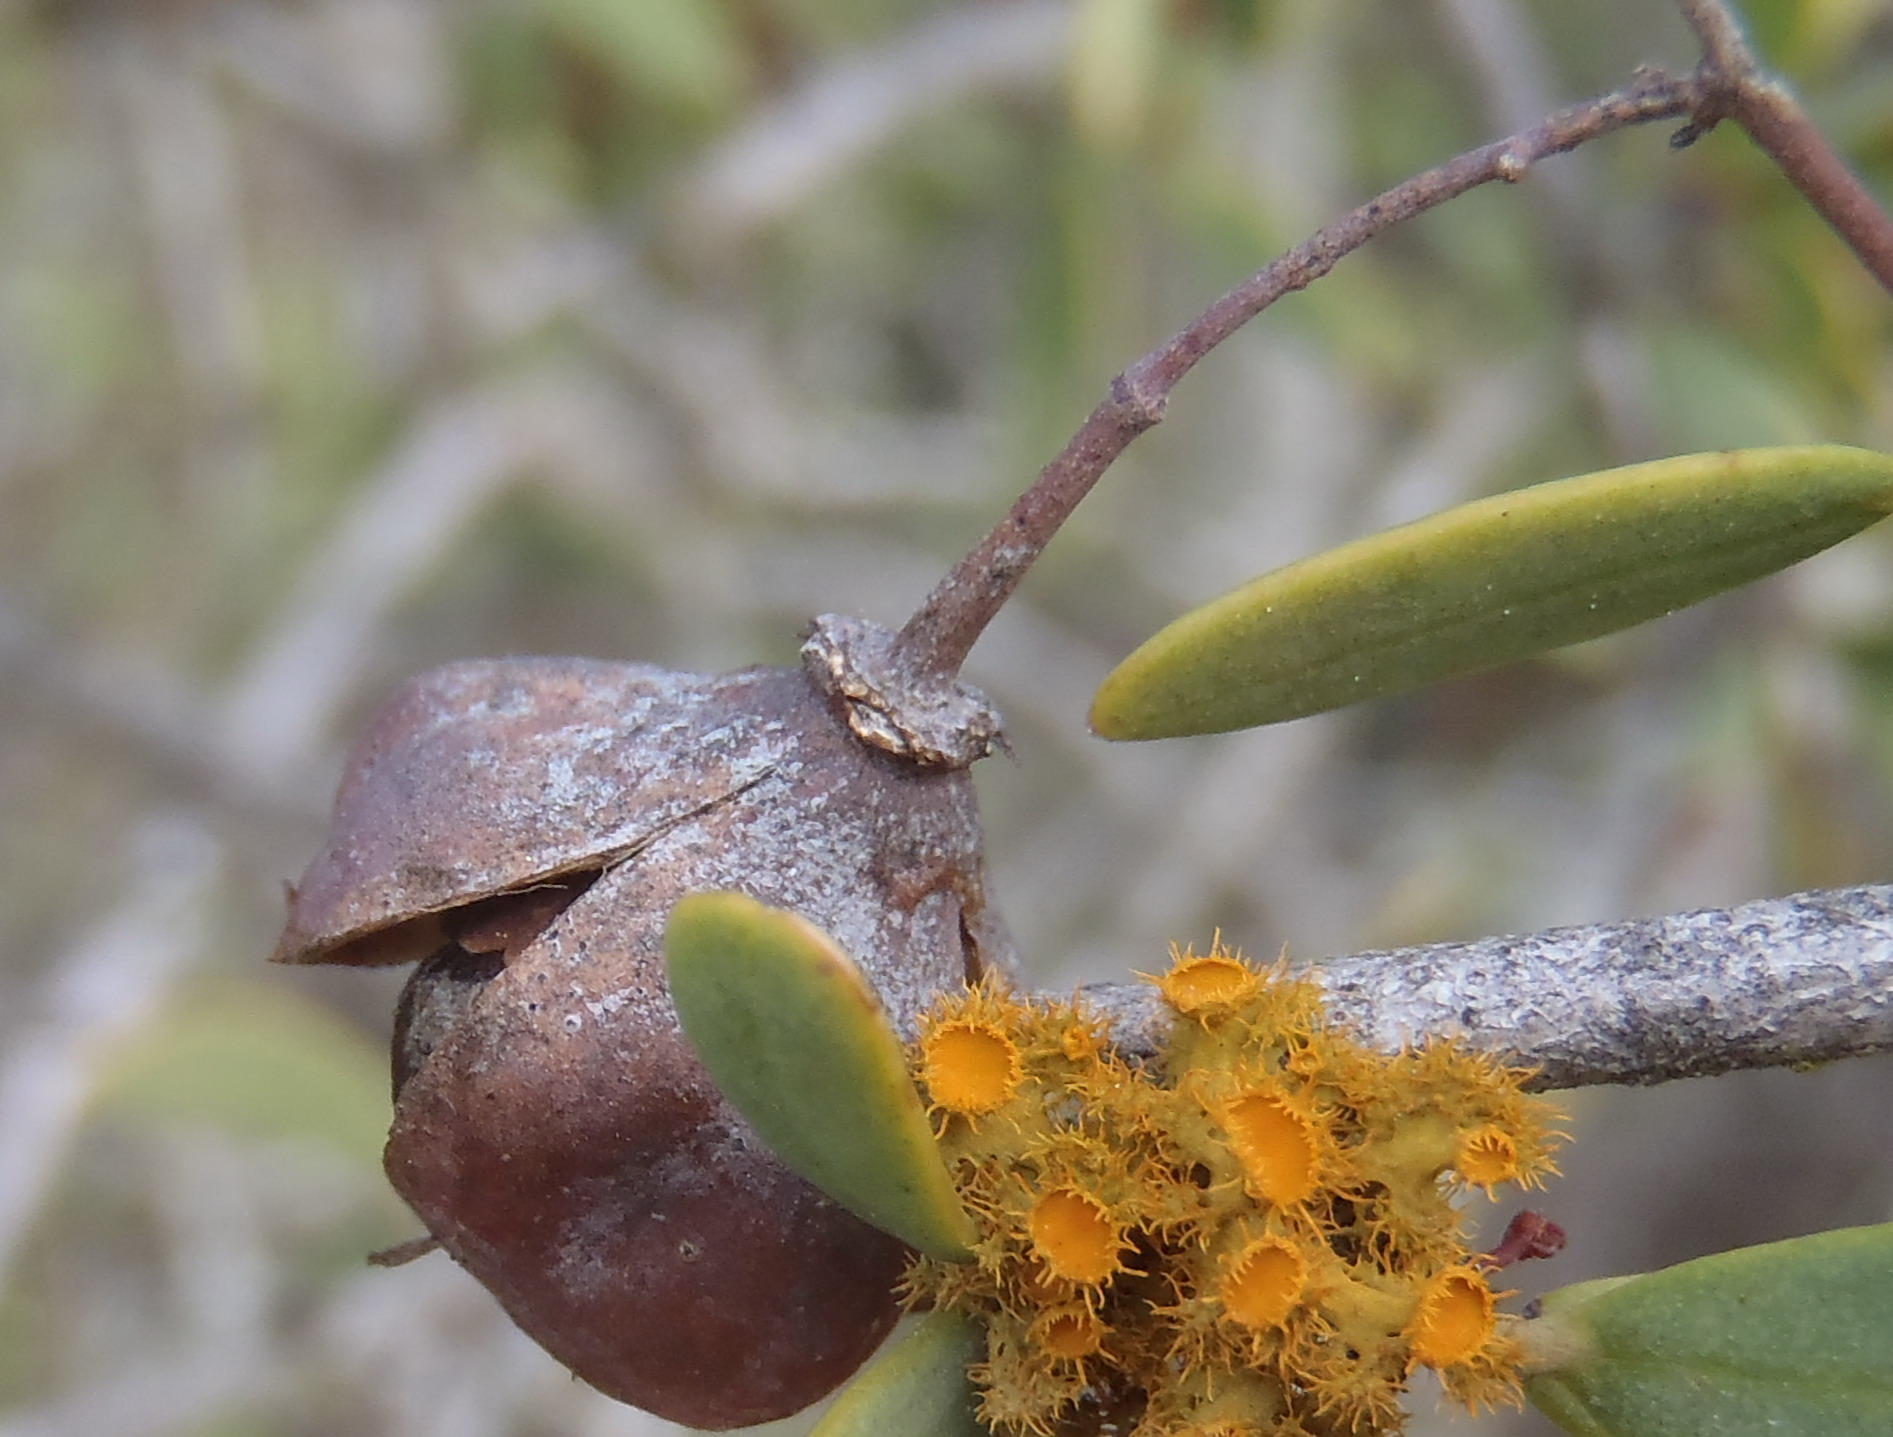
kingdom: Plantae
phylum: Tracheophyta
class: Magnoliopsida
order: Celastrales
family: Celastraceae
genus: Gloveria
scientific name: Gloveria integrifolia
